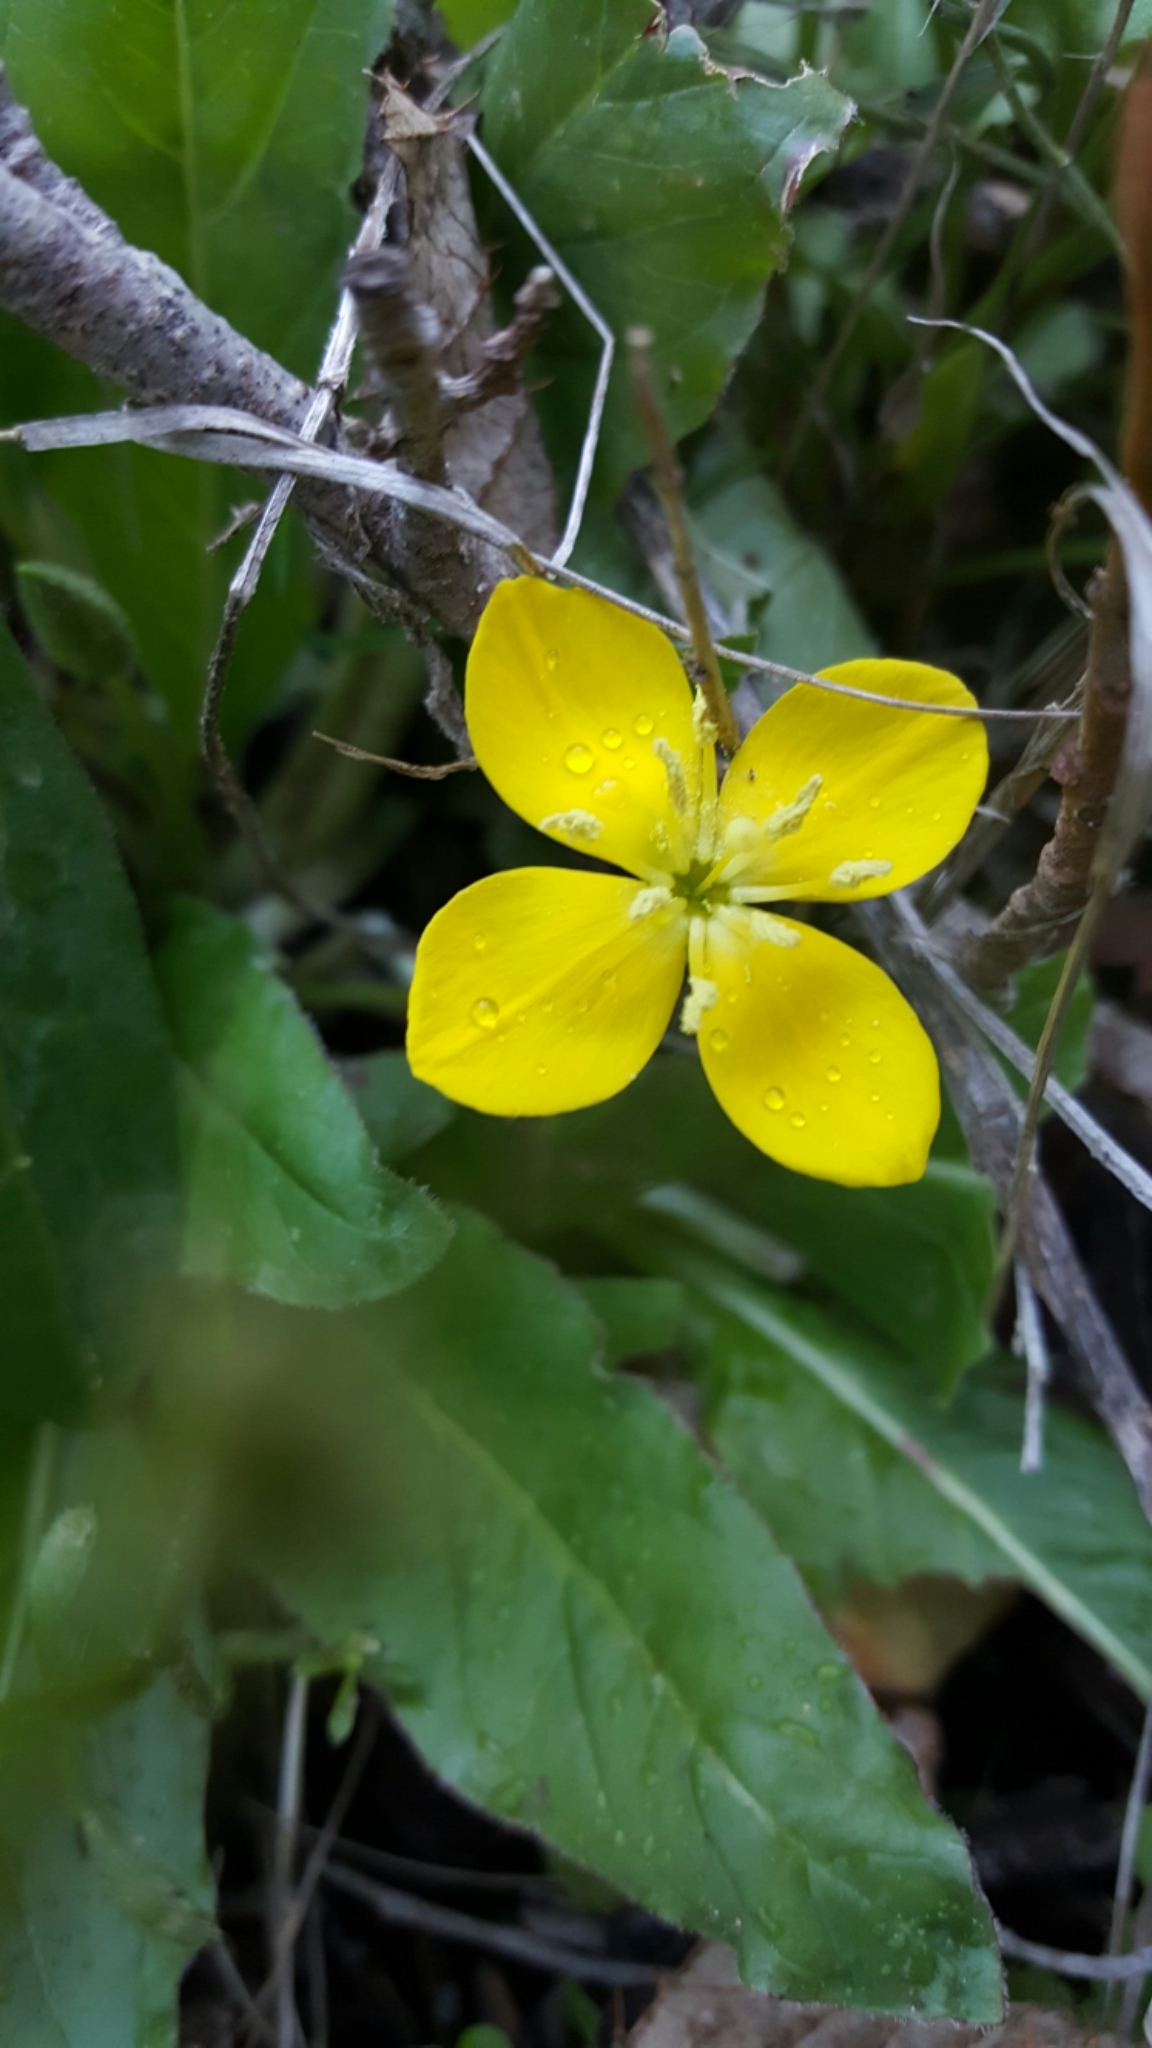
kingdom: Plantae
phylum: Tracheophyta
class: Magnoliopsida
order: Myrtales
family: Onagraceae
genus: Taraxia
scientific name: Taraxia ovata
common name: Goldeneggs
